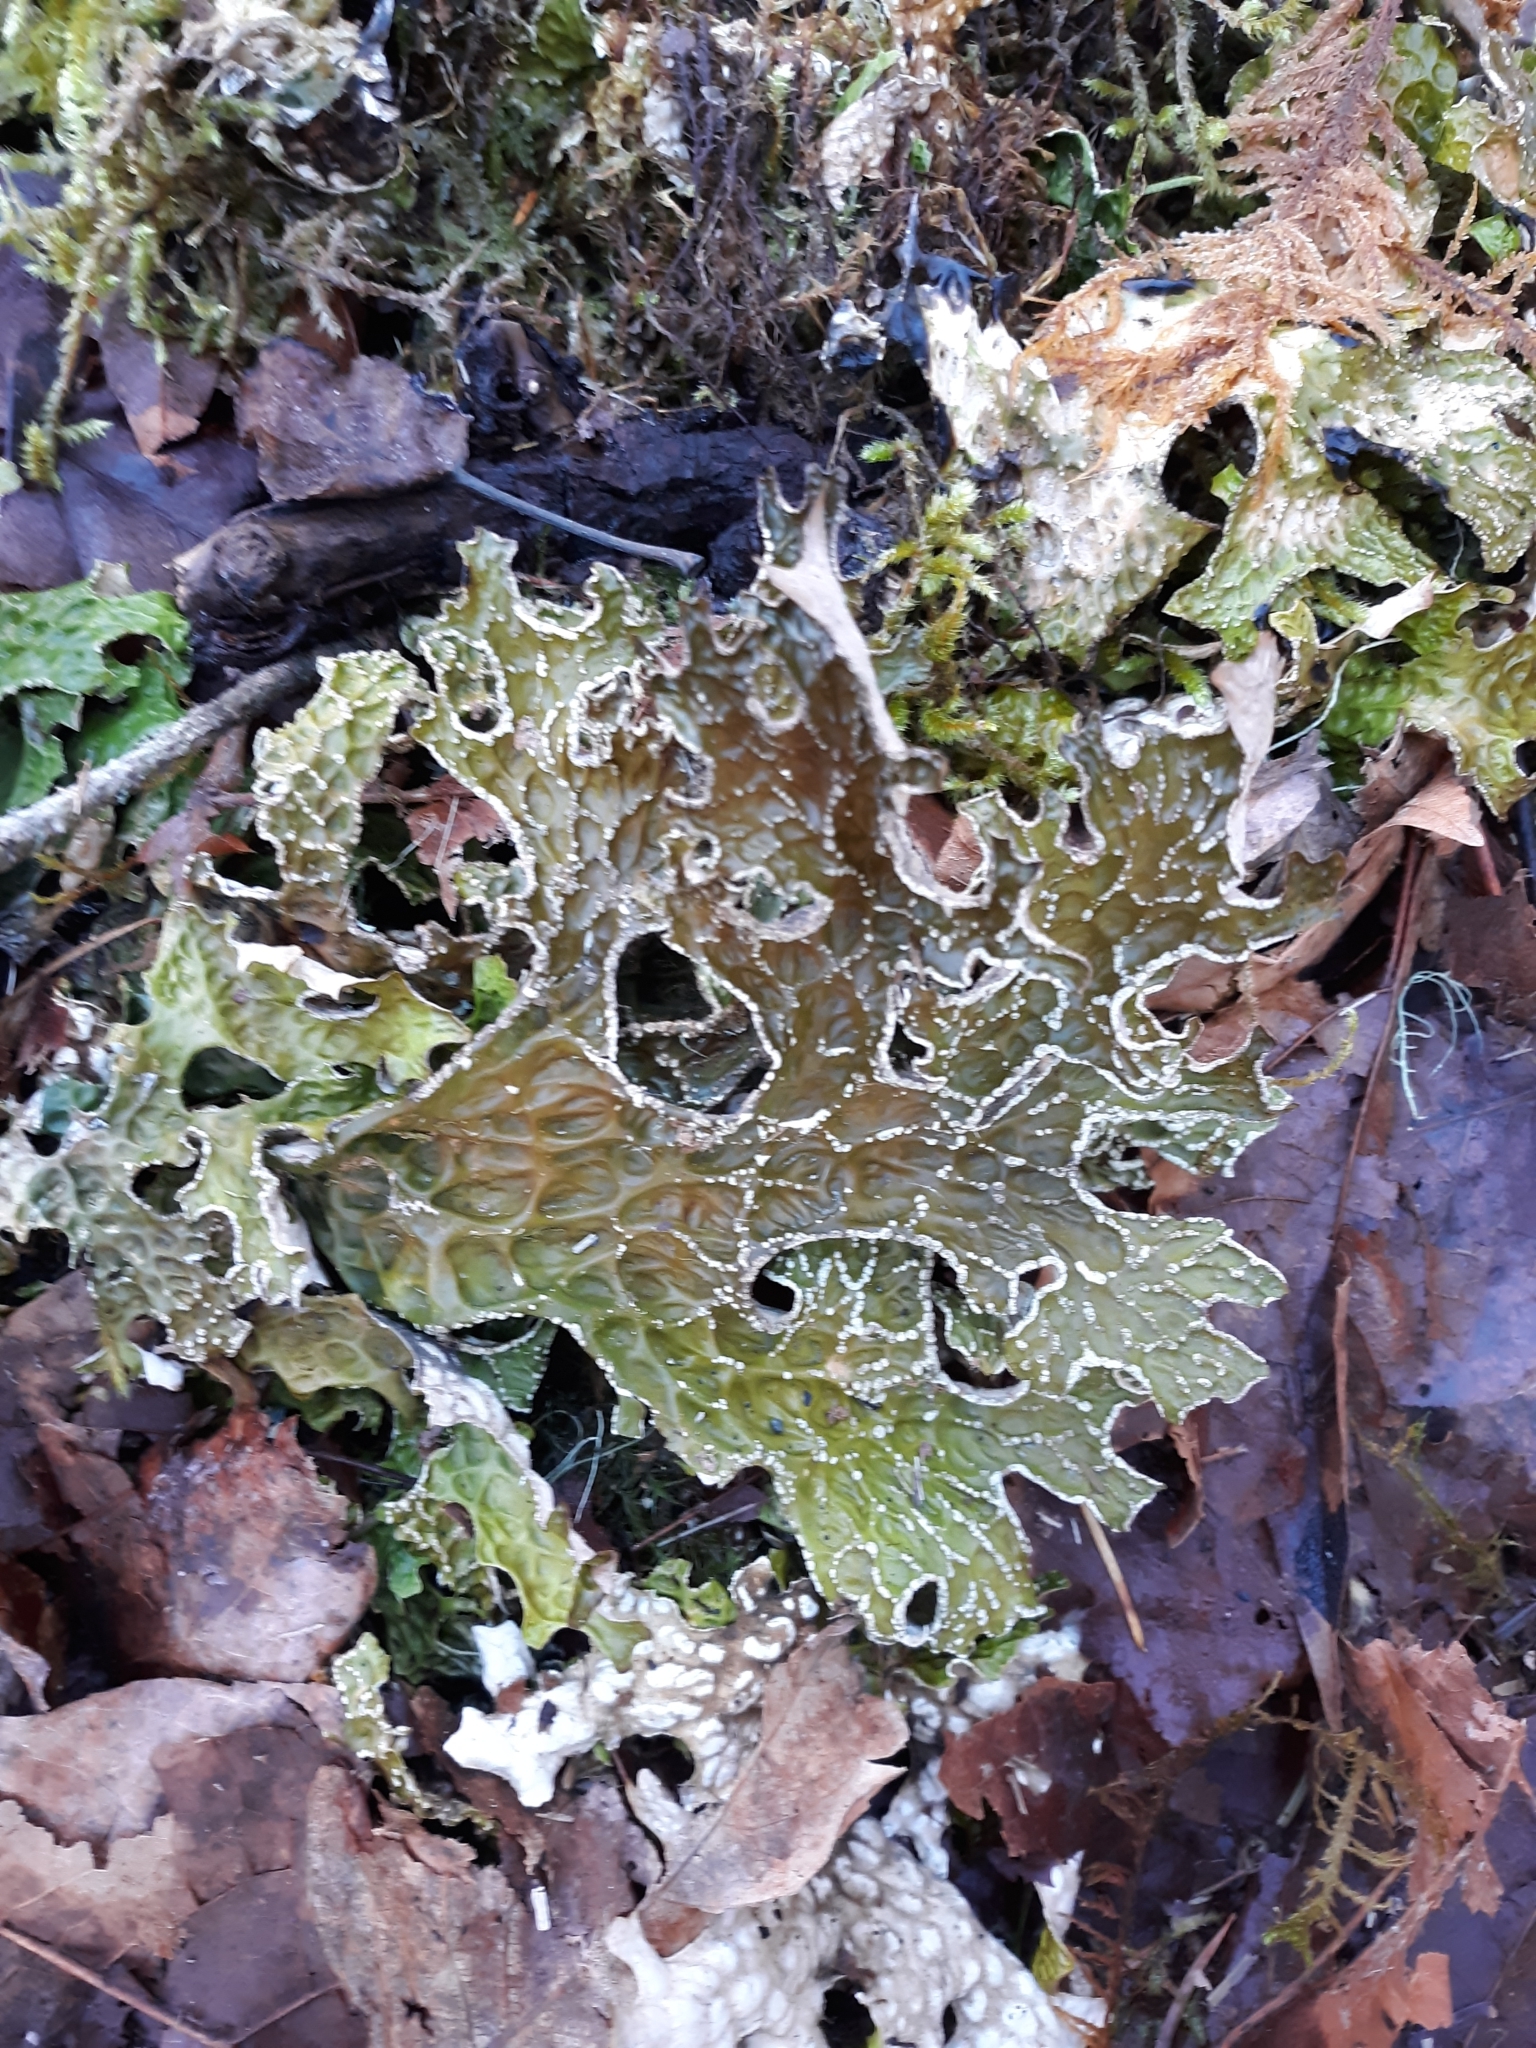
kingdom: Fungi
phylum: Ascomycota
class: Lecanoromycetes
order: Peltigerales
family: Lobariaceae
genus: Lobaria
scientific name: Lobaria pulmonaria
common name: Lungwort
